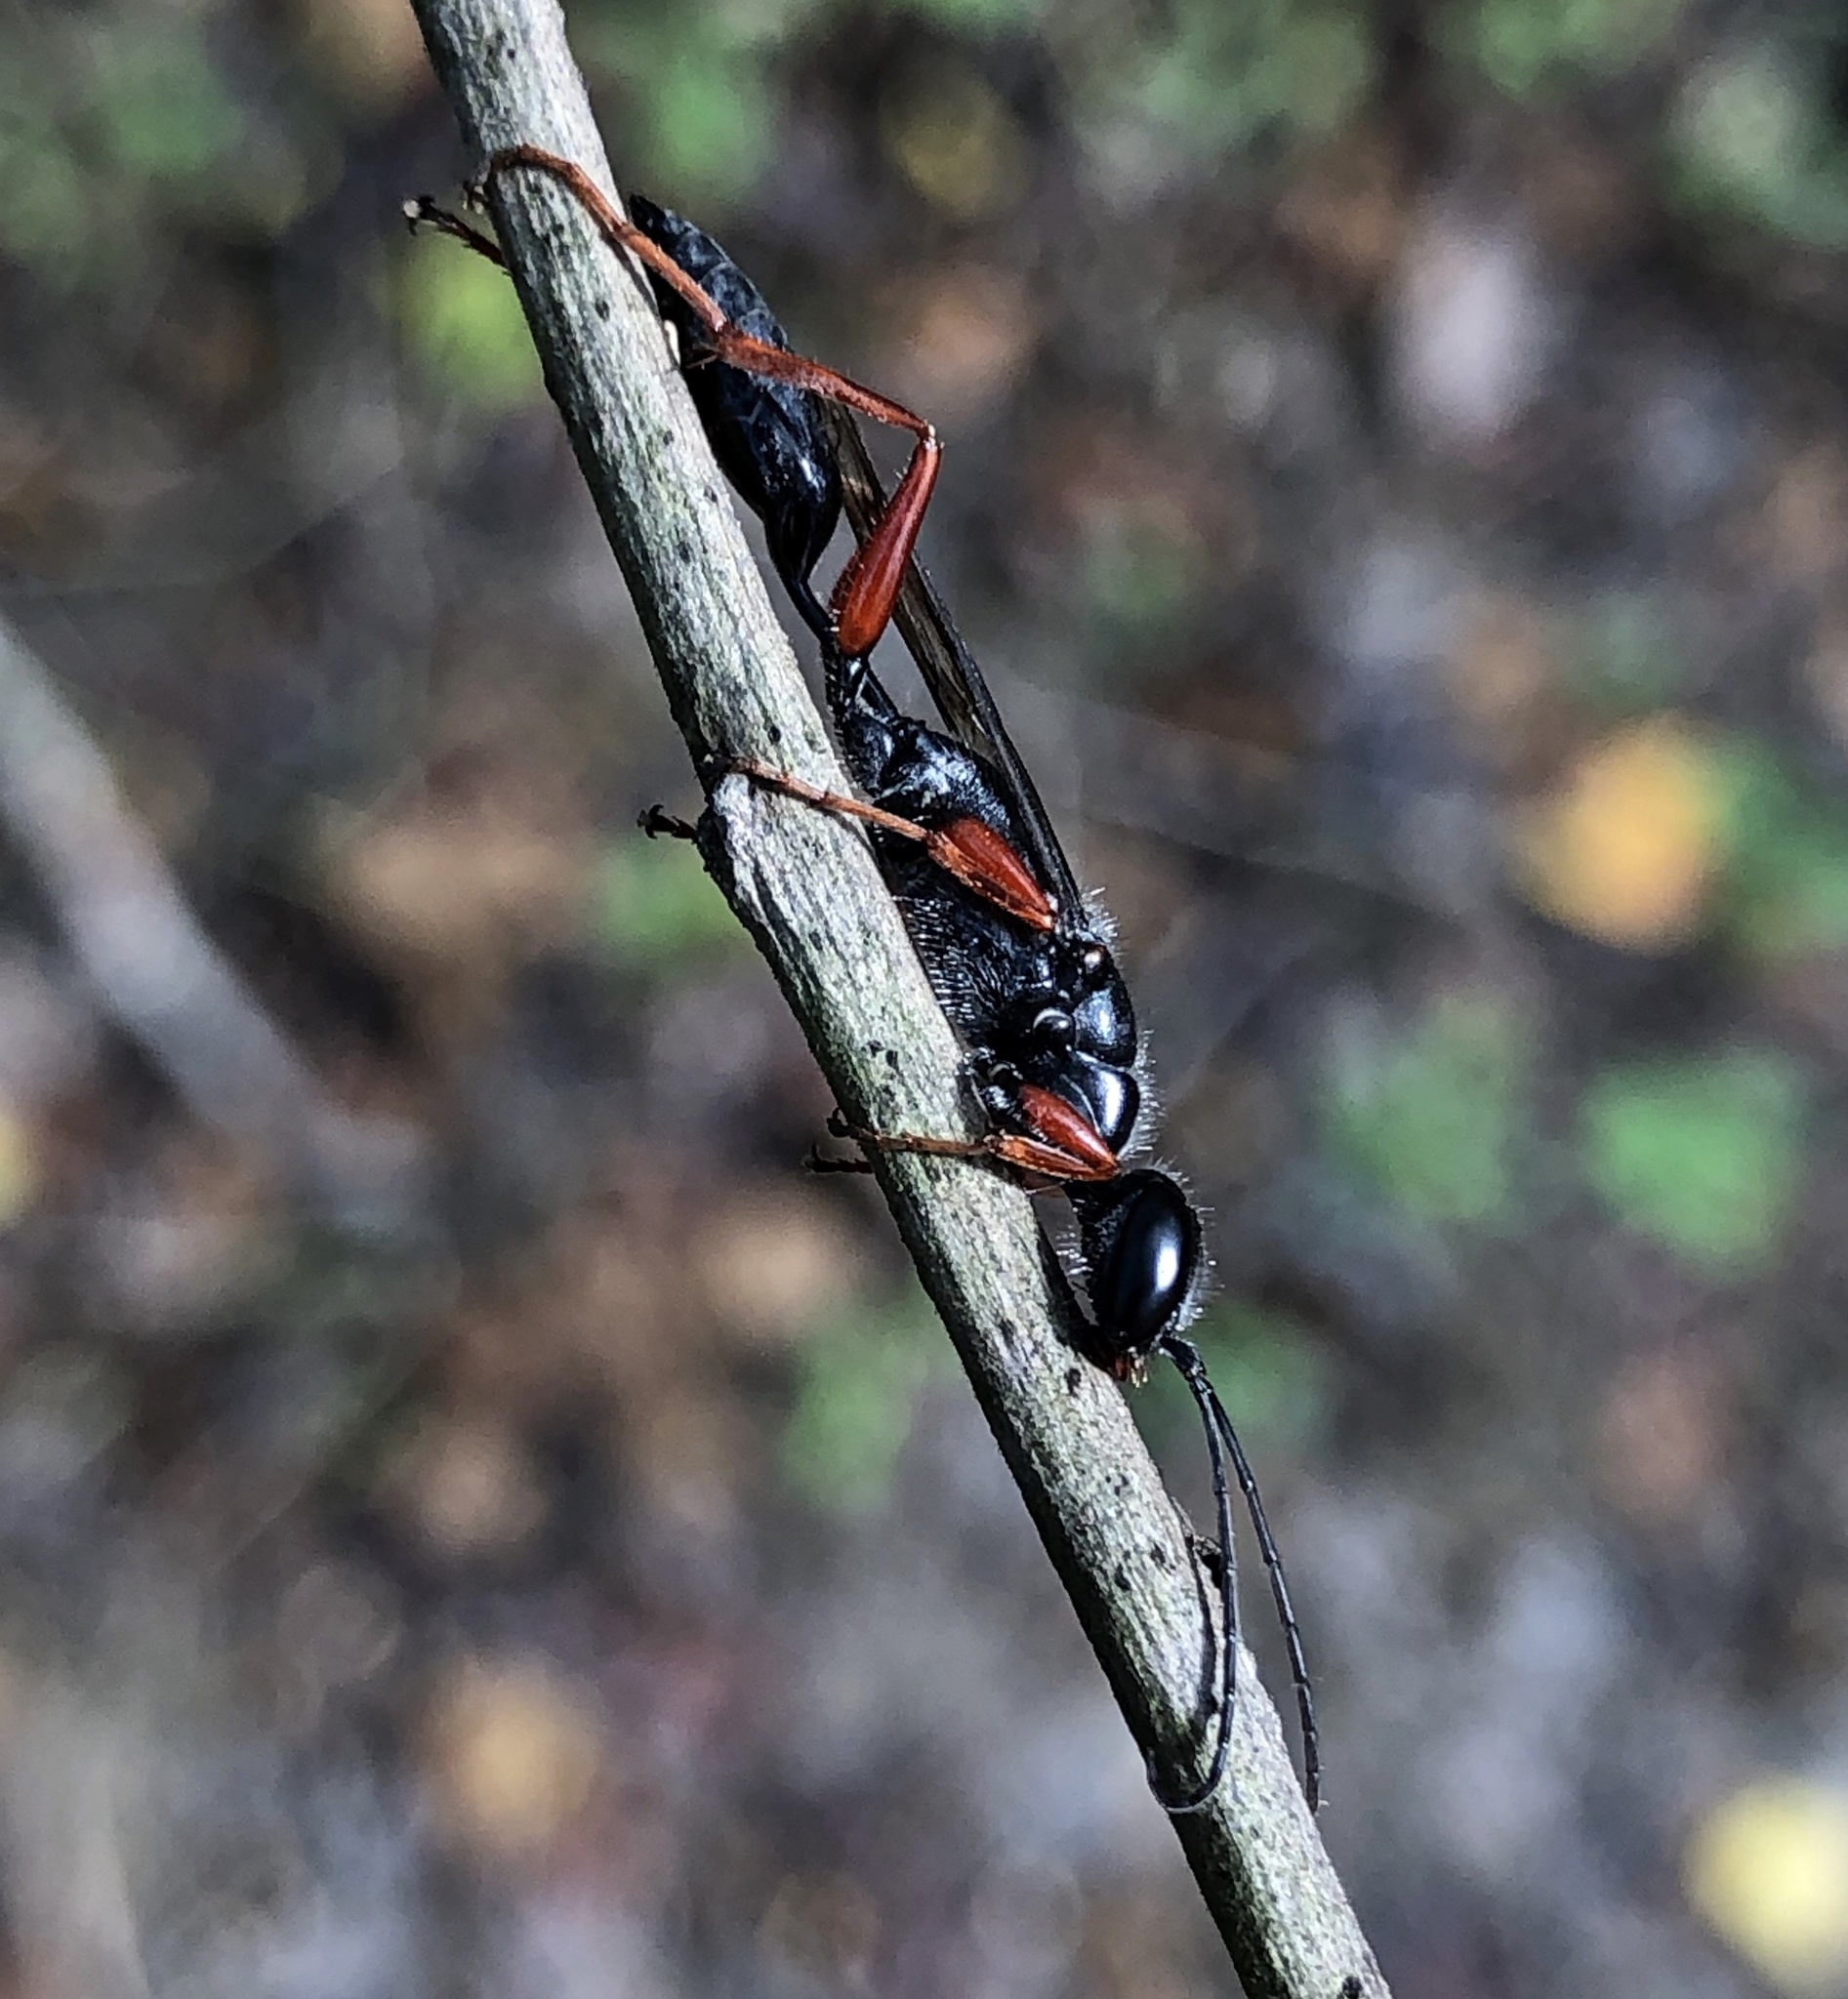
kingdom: Animalia
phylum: Arthropoda
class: Insecta
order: Hymenoptera
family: Sphecidae
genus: Podium
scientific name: Podium rufipes
